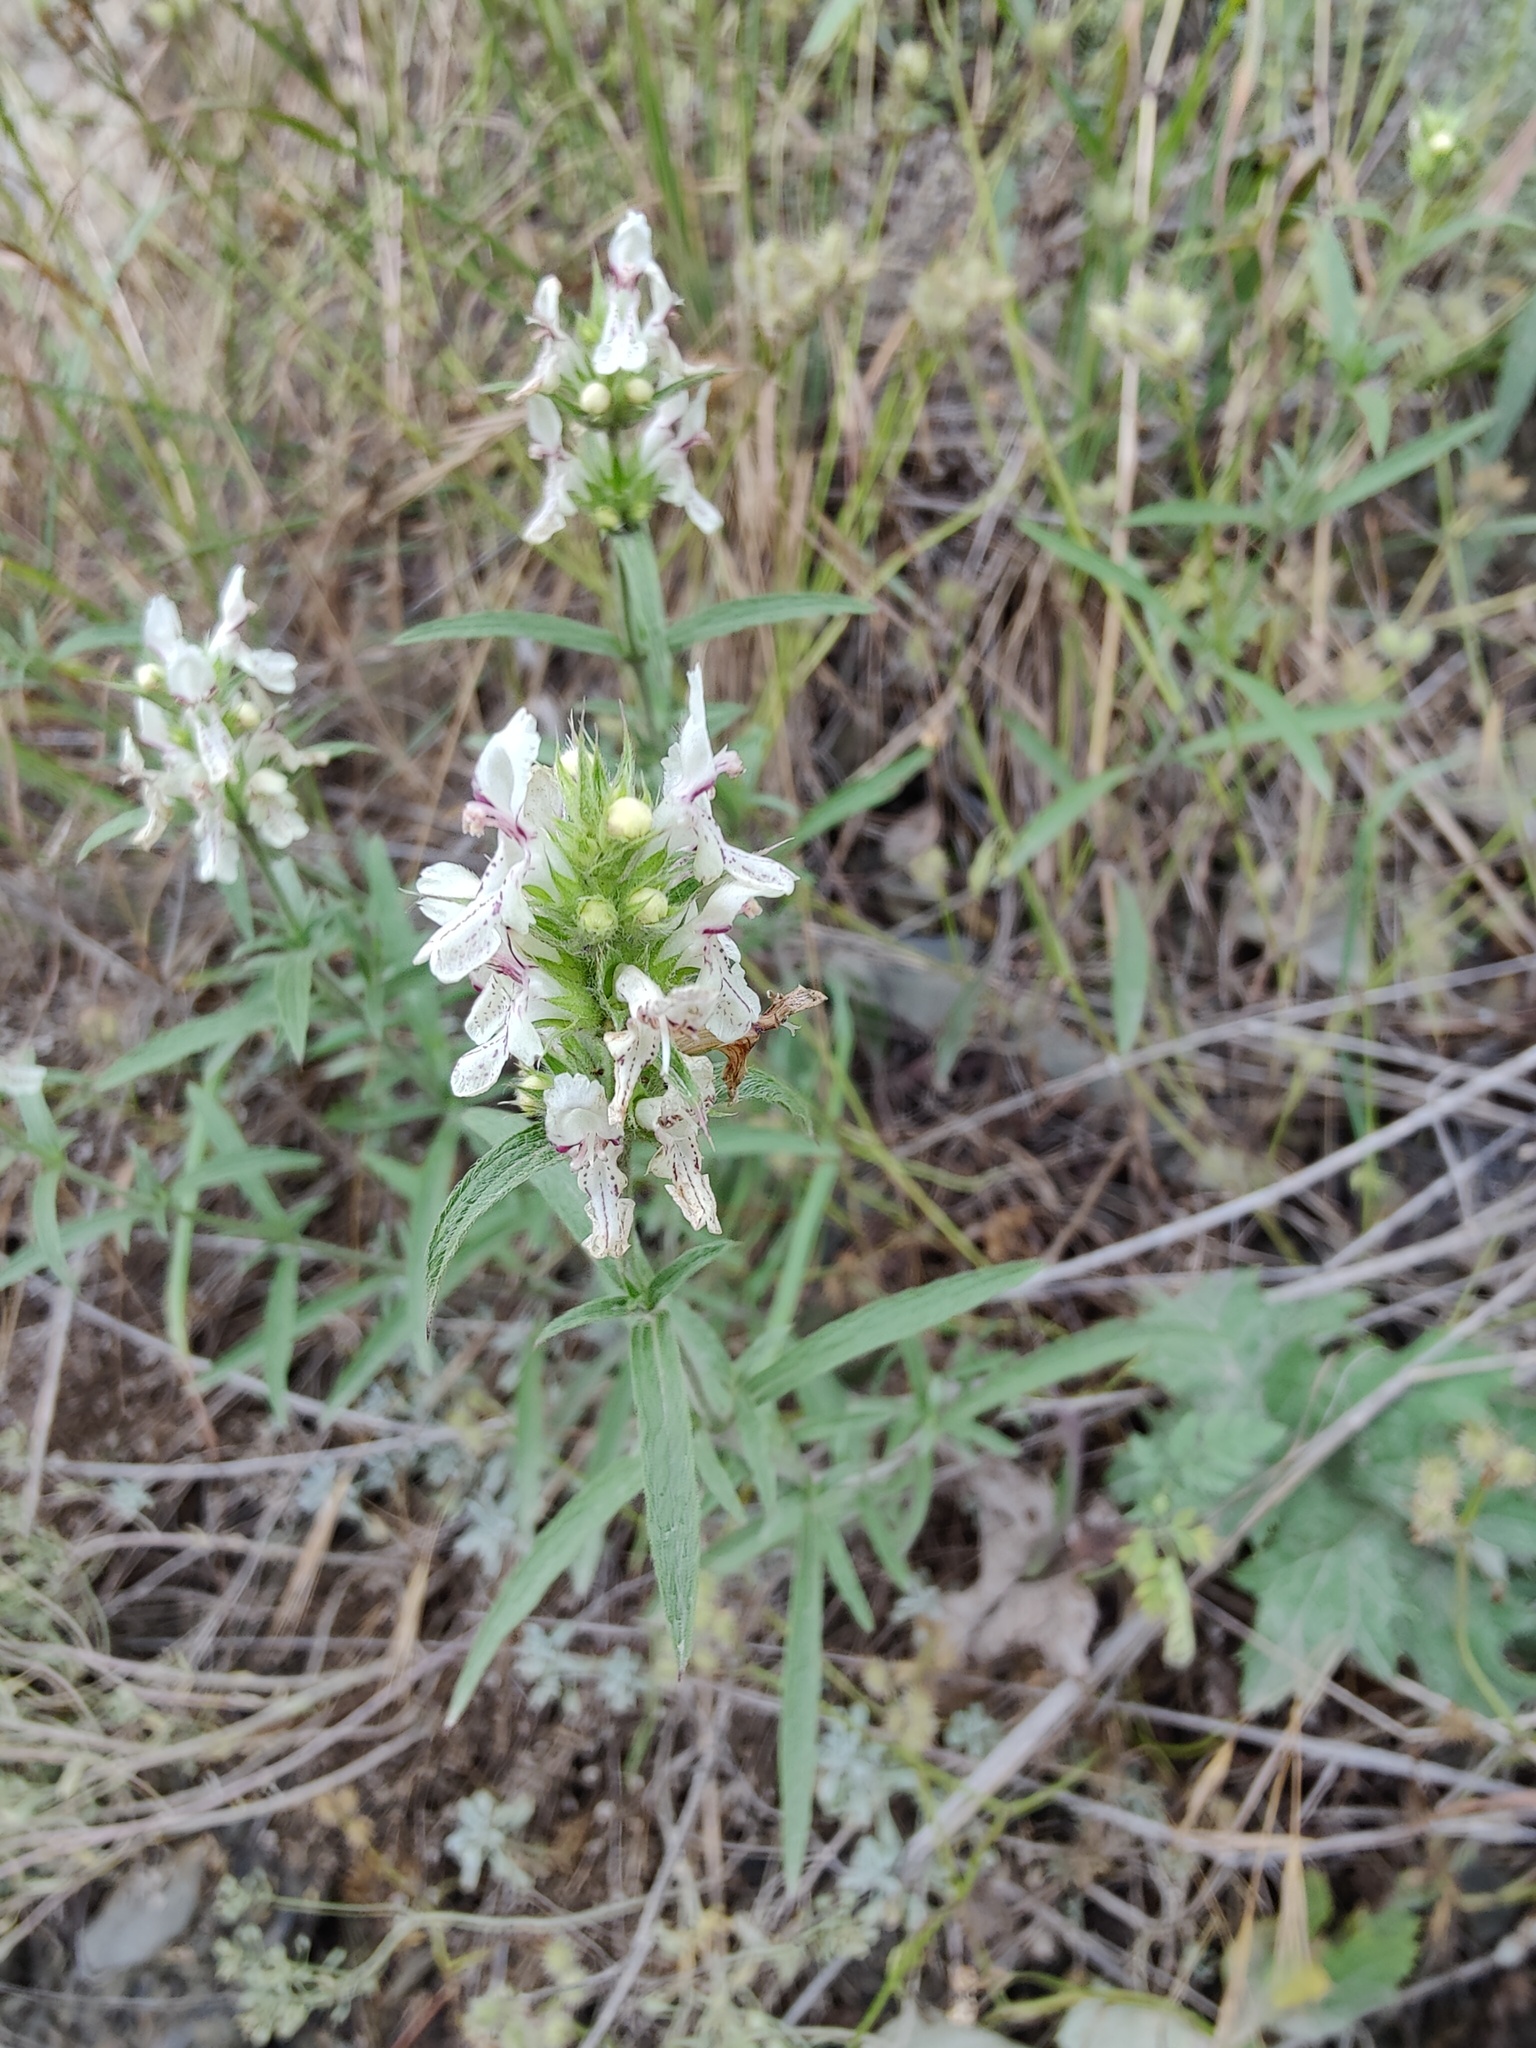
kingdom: Plantae
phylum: Tracheophyta
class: Magnoliopsida
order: Lamiales
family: Lamiaceae
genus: Stachys
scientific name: Stachys atherocalyx
